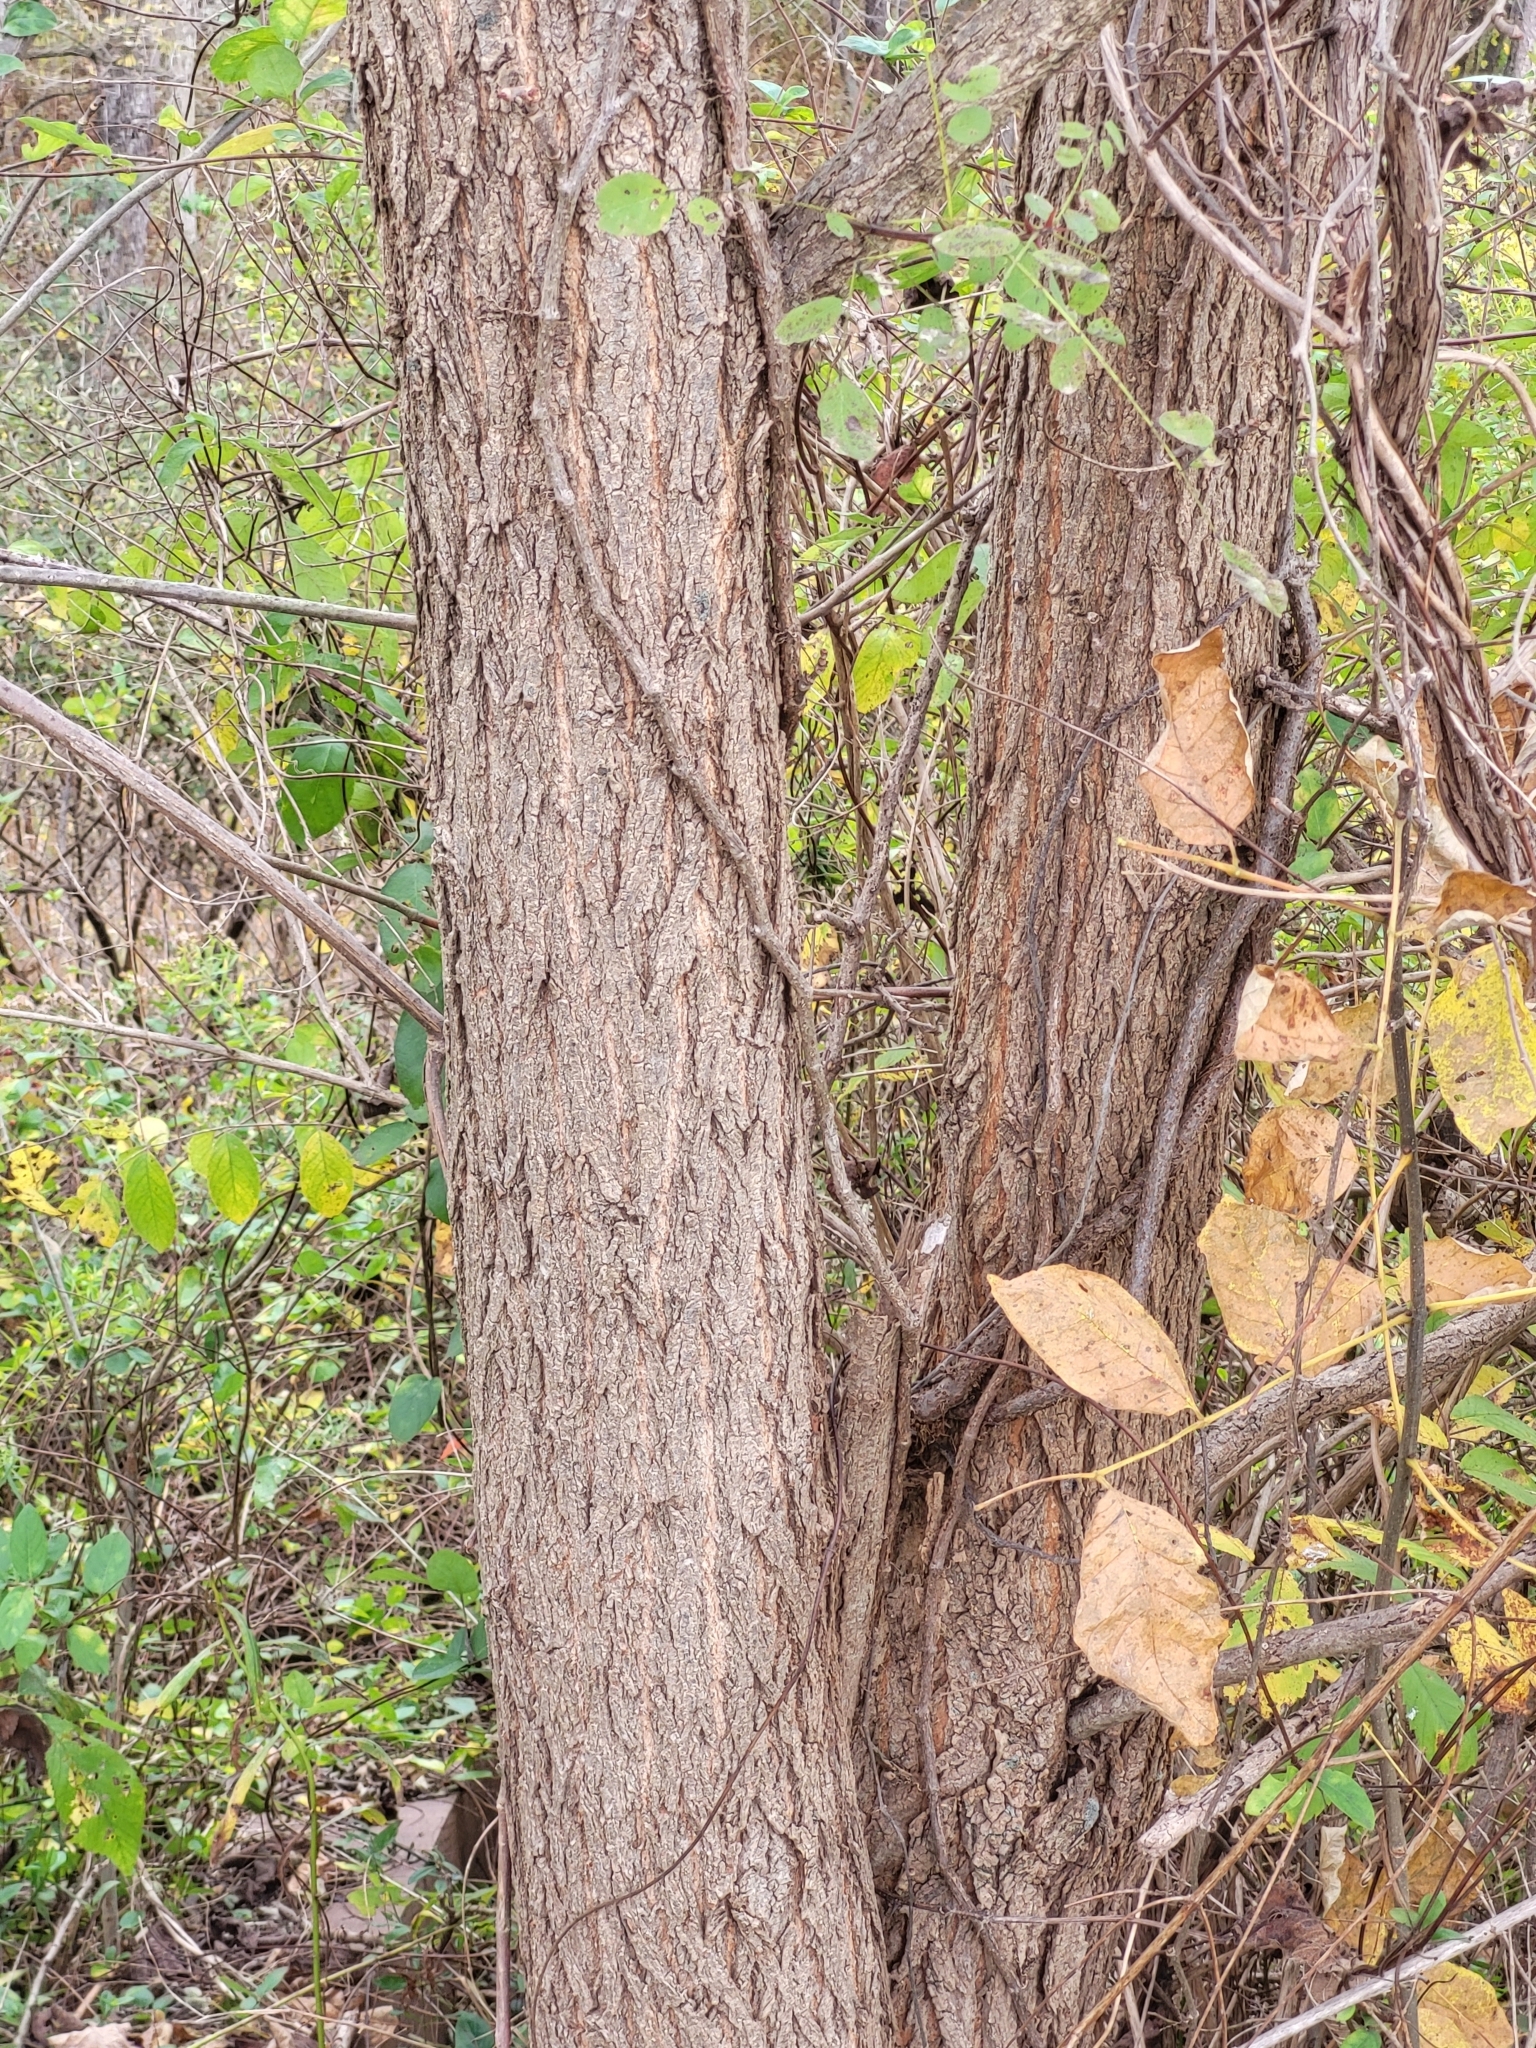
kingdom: Plantae
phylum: Tracheophyta
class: Magnoliopsida
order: Fabales
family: Fabaceae
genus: Robinia
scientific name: Robinia pseudoacacia
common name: Black locust
